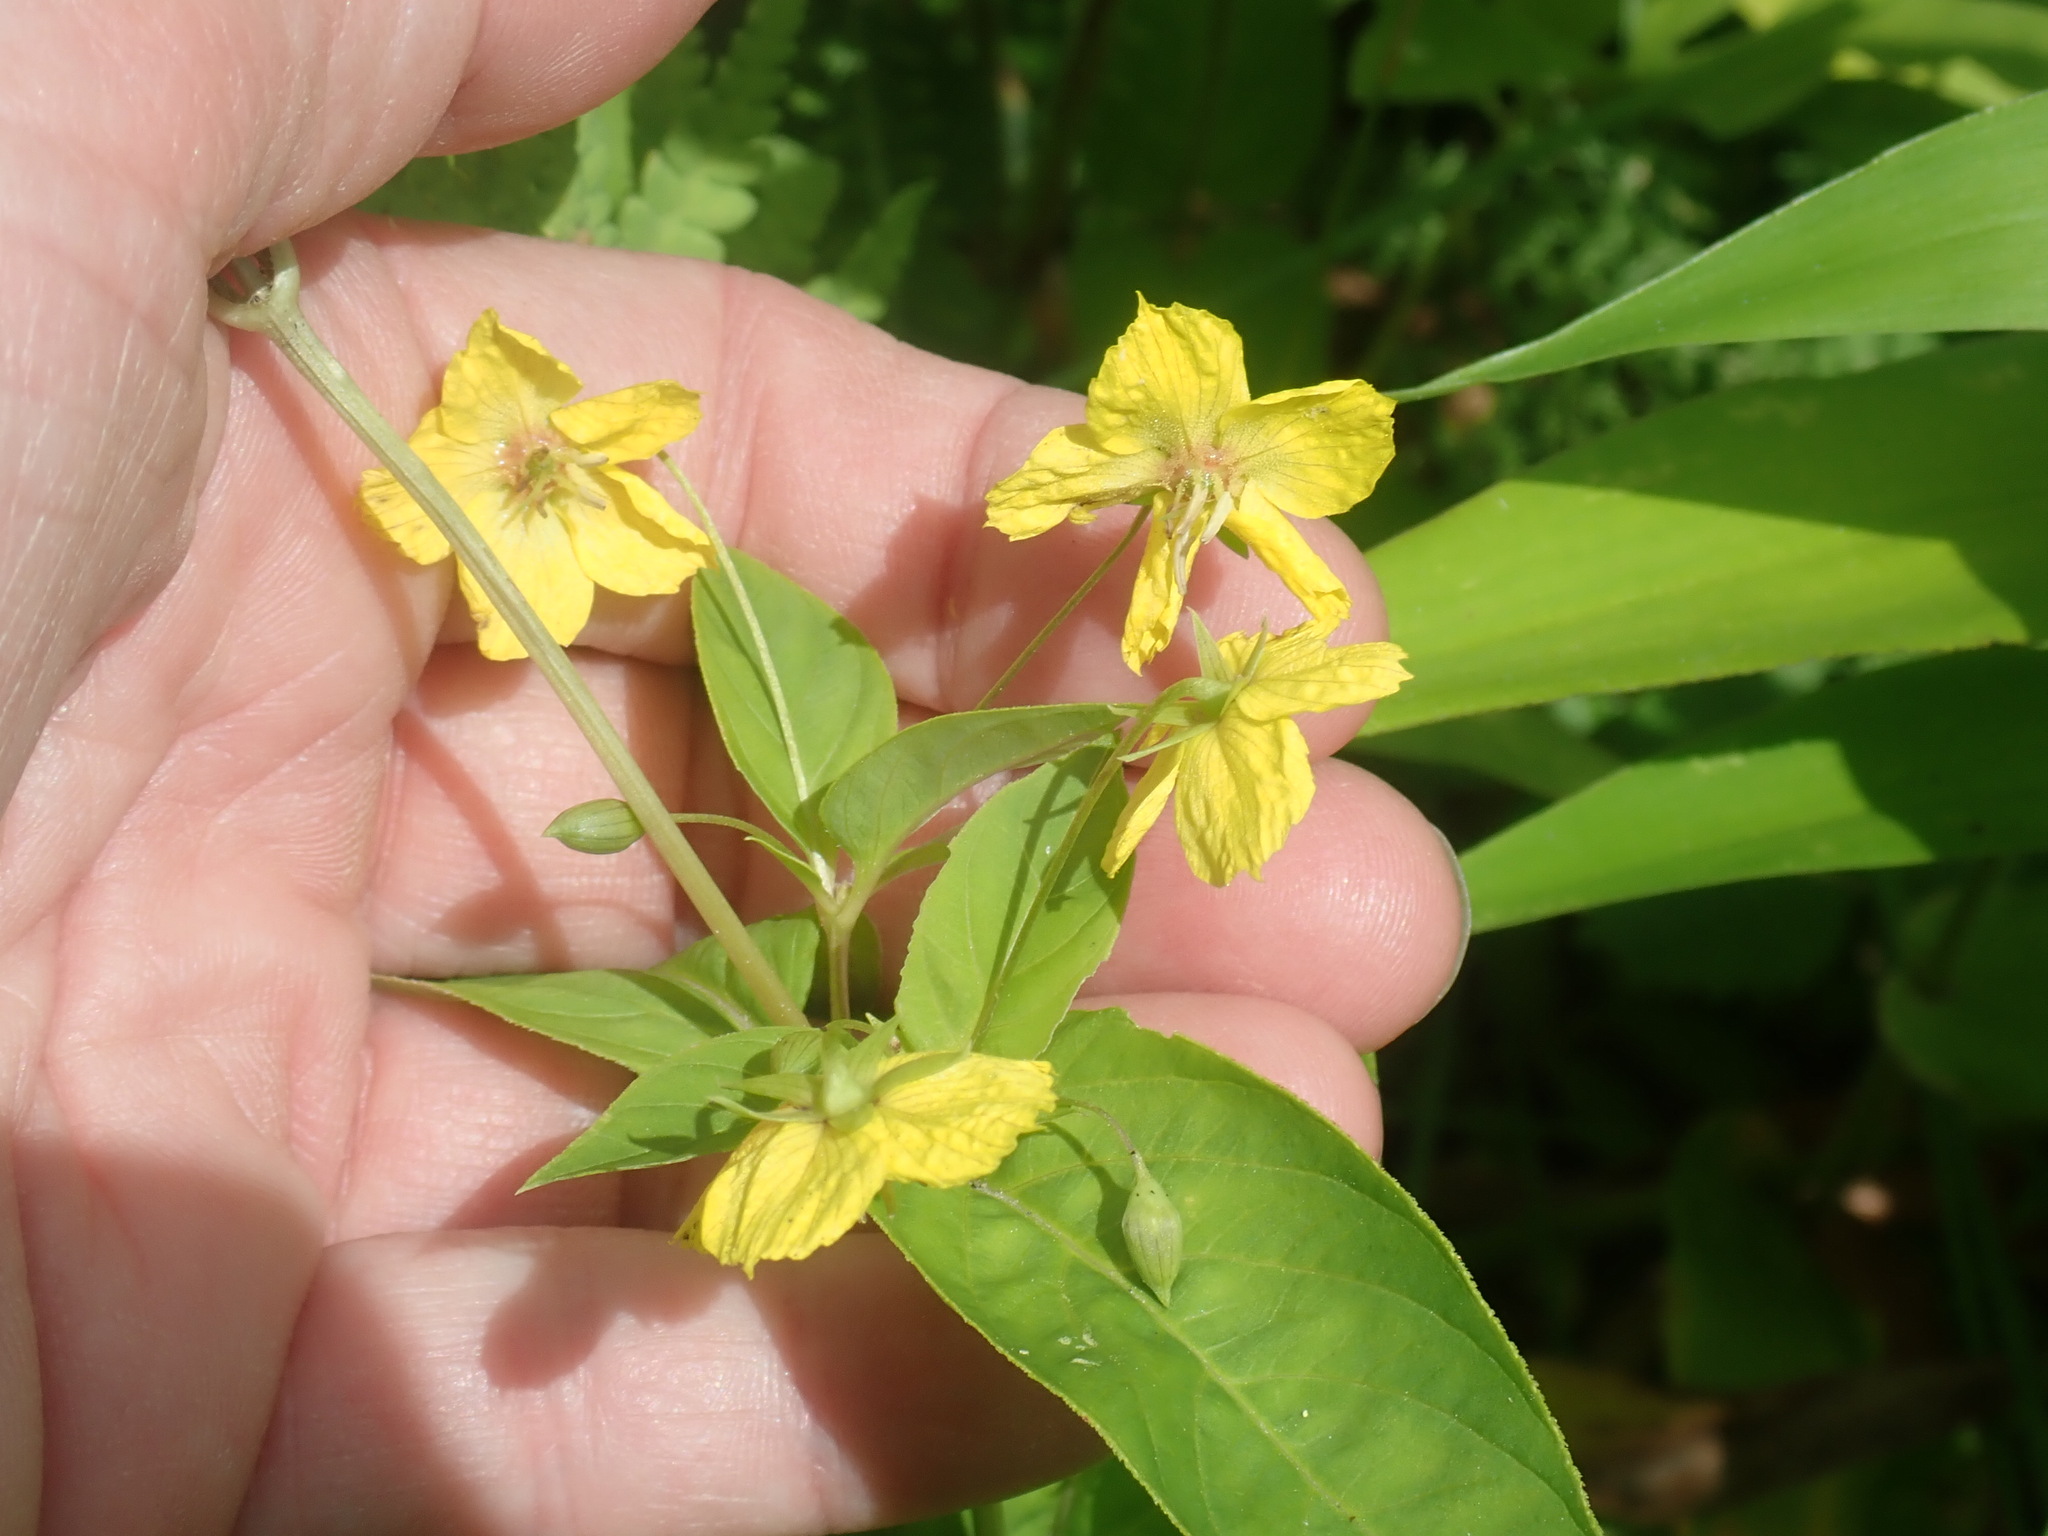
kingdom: Plantae
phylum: Tracheophyta
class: Magnoliopsida
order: Ericales
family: Primulaceae
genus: Lysimachia
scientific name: Lysimachia ciliata
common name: Fringed loosestrife
